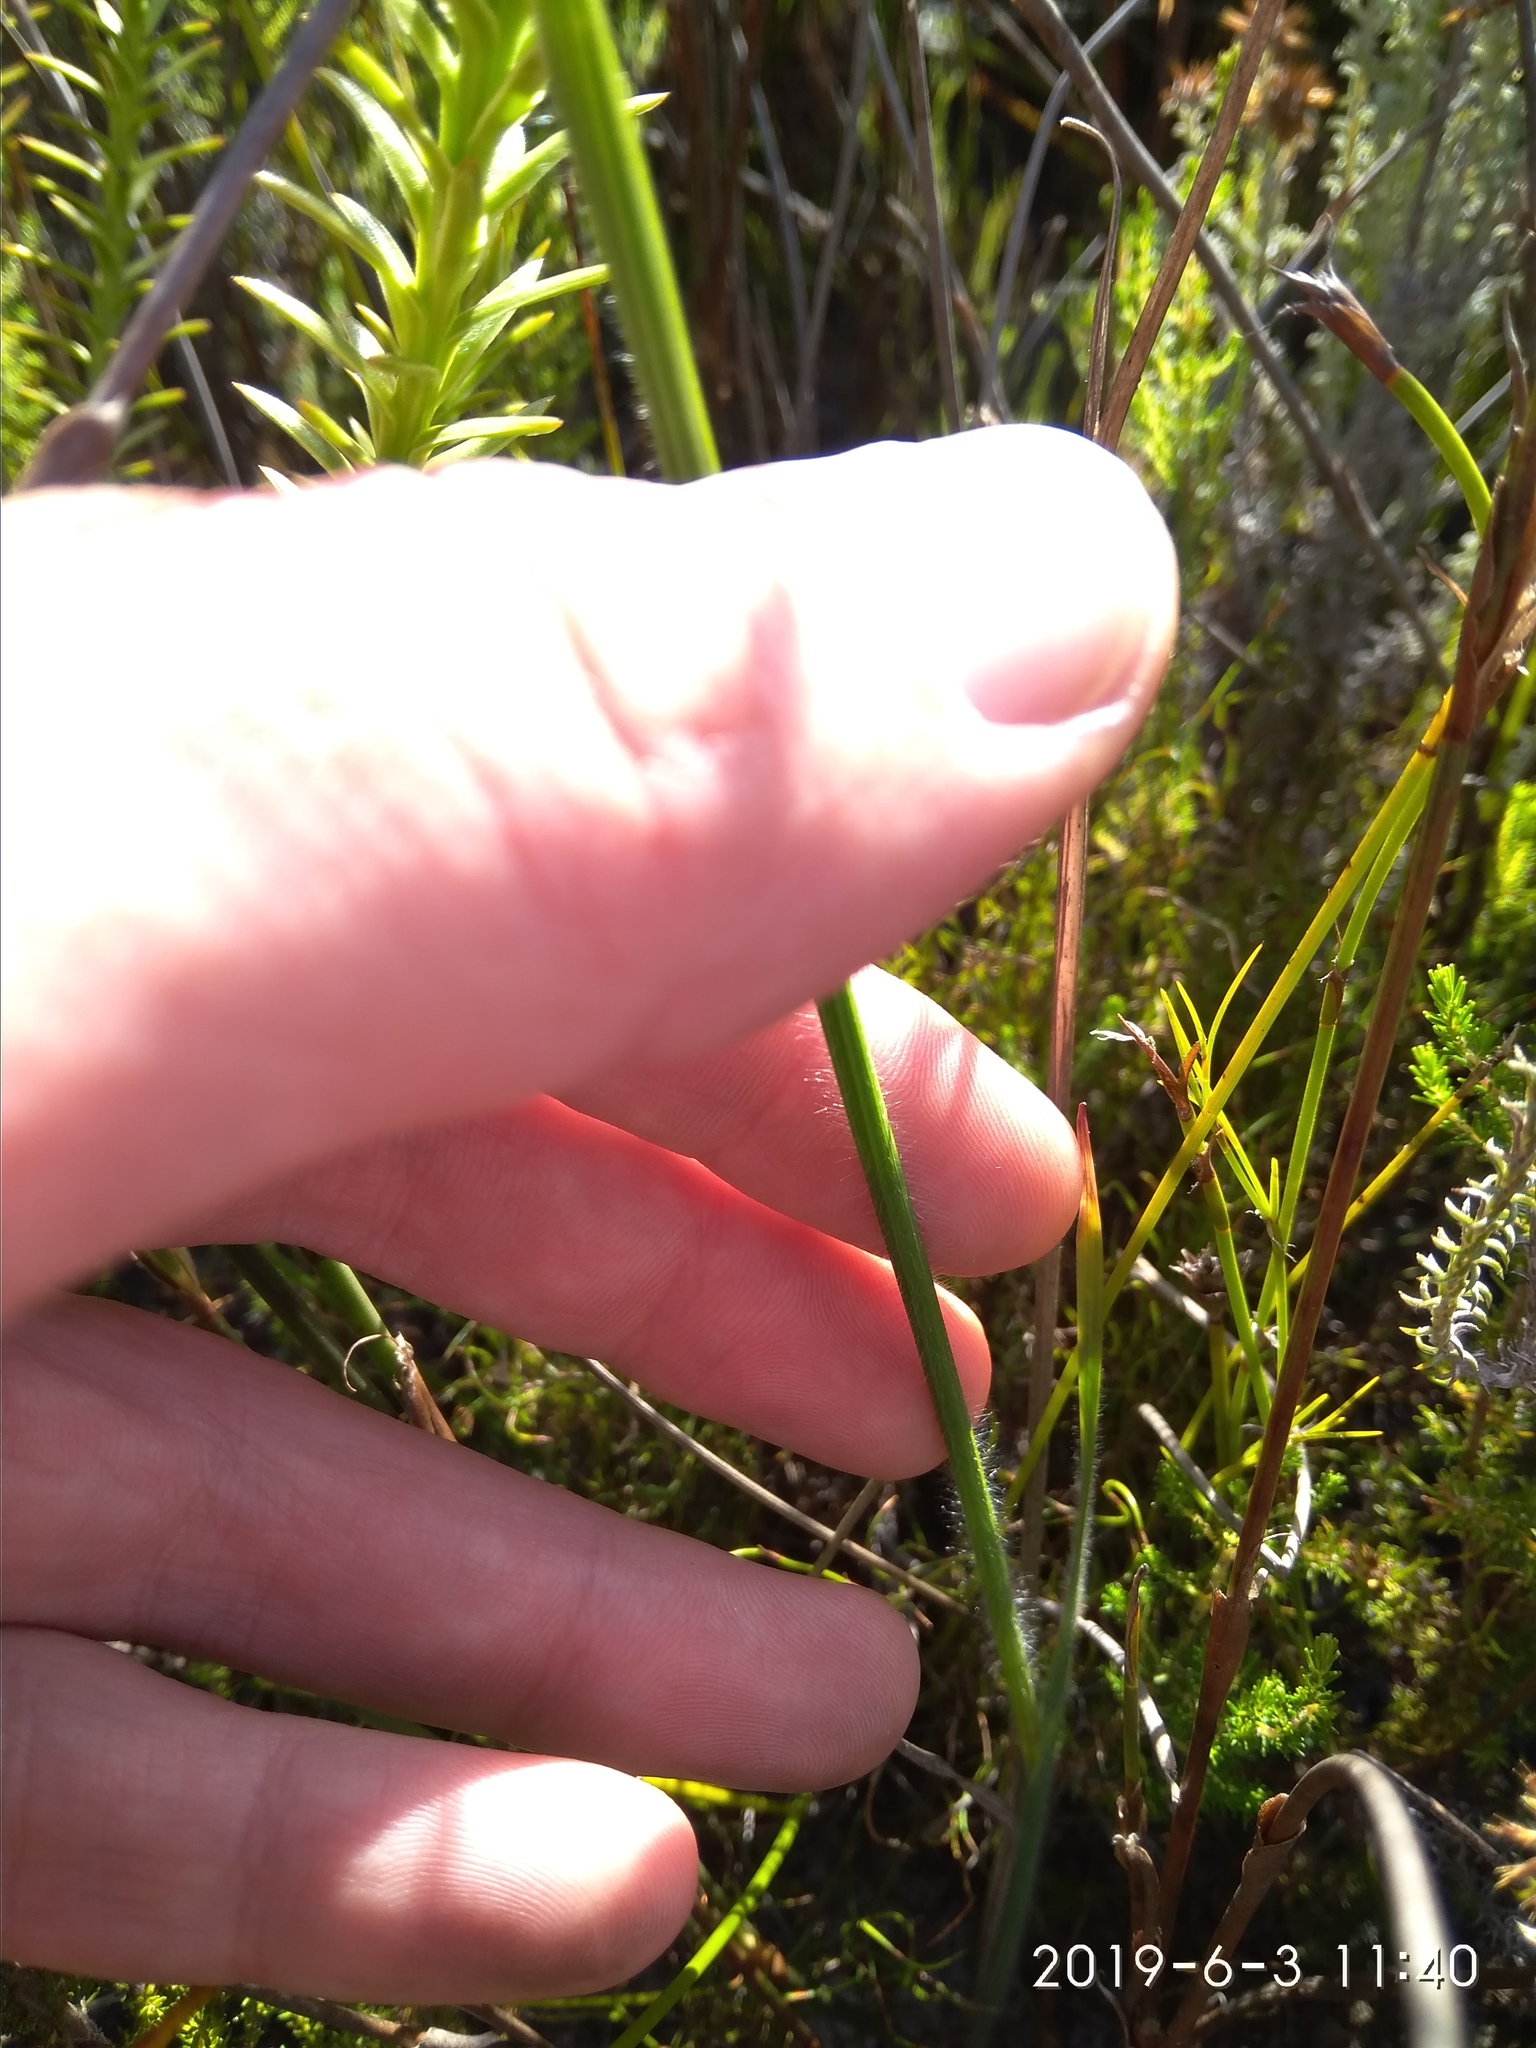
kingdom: Plantae
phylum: Tracheophyta
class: Liliopsida
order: Asparagales
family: Iridaceae
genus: Gladiolus
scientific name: Gladiolus merianellus
